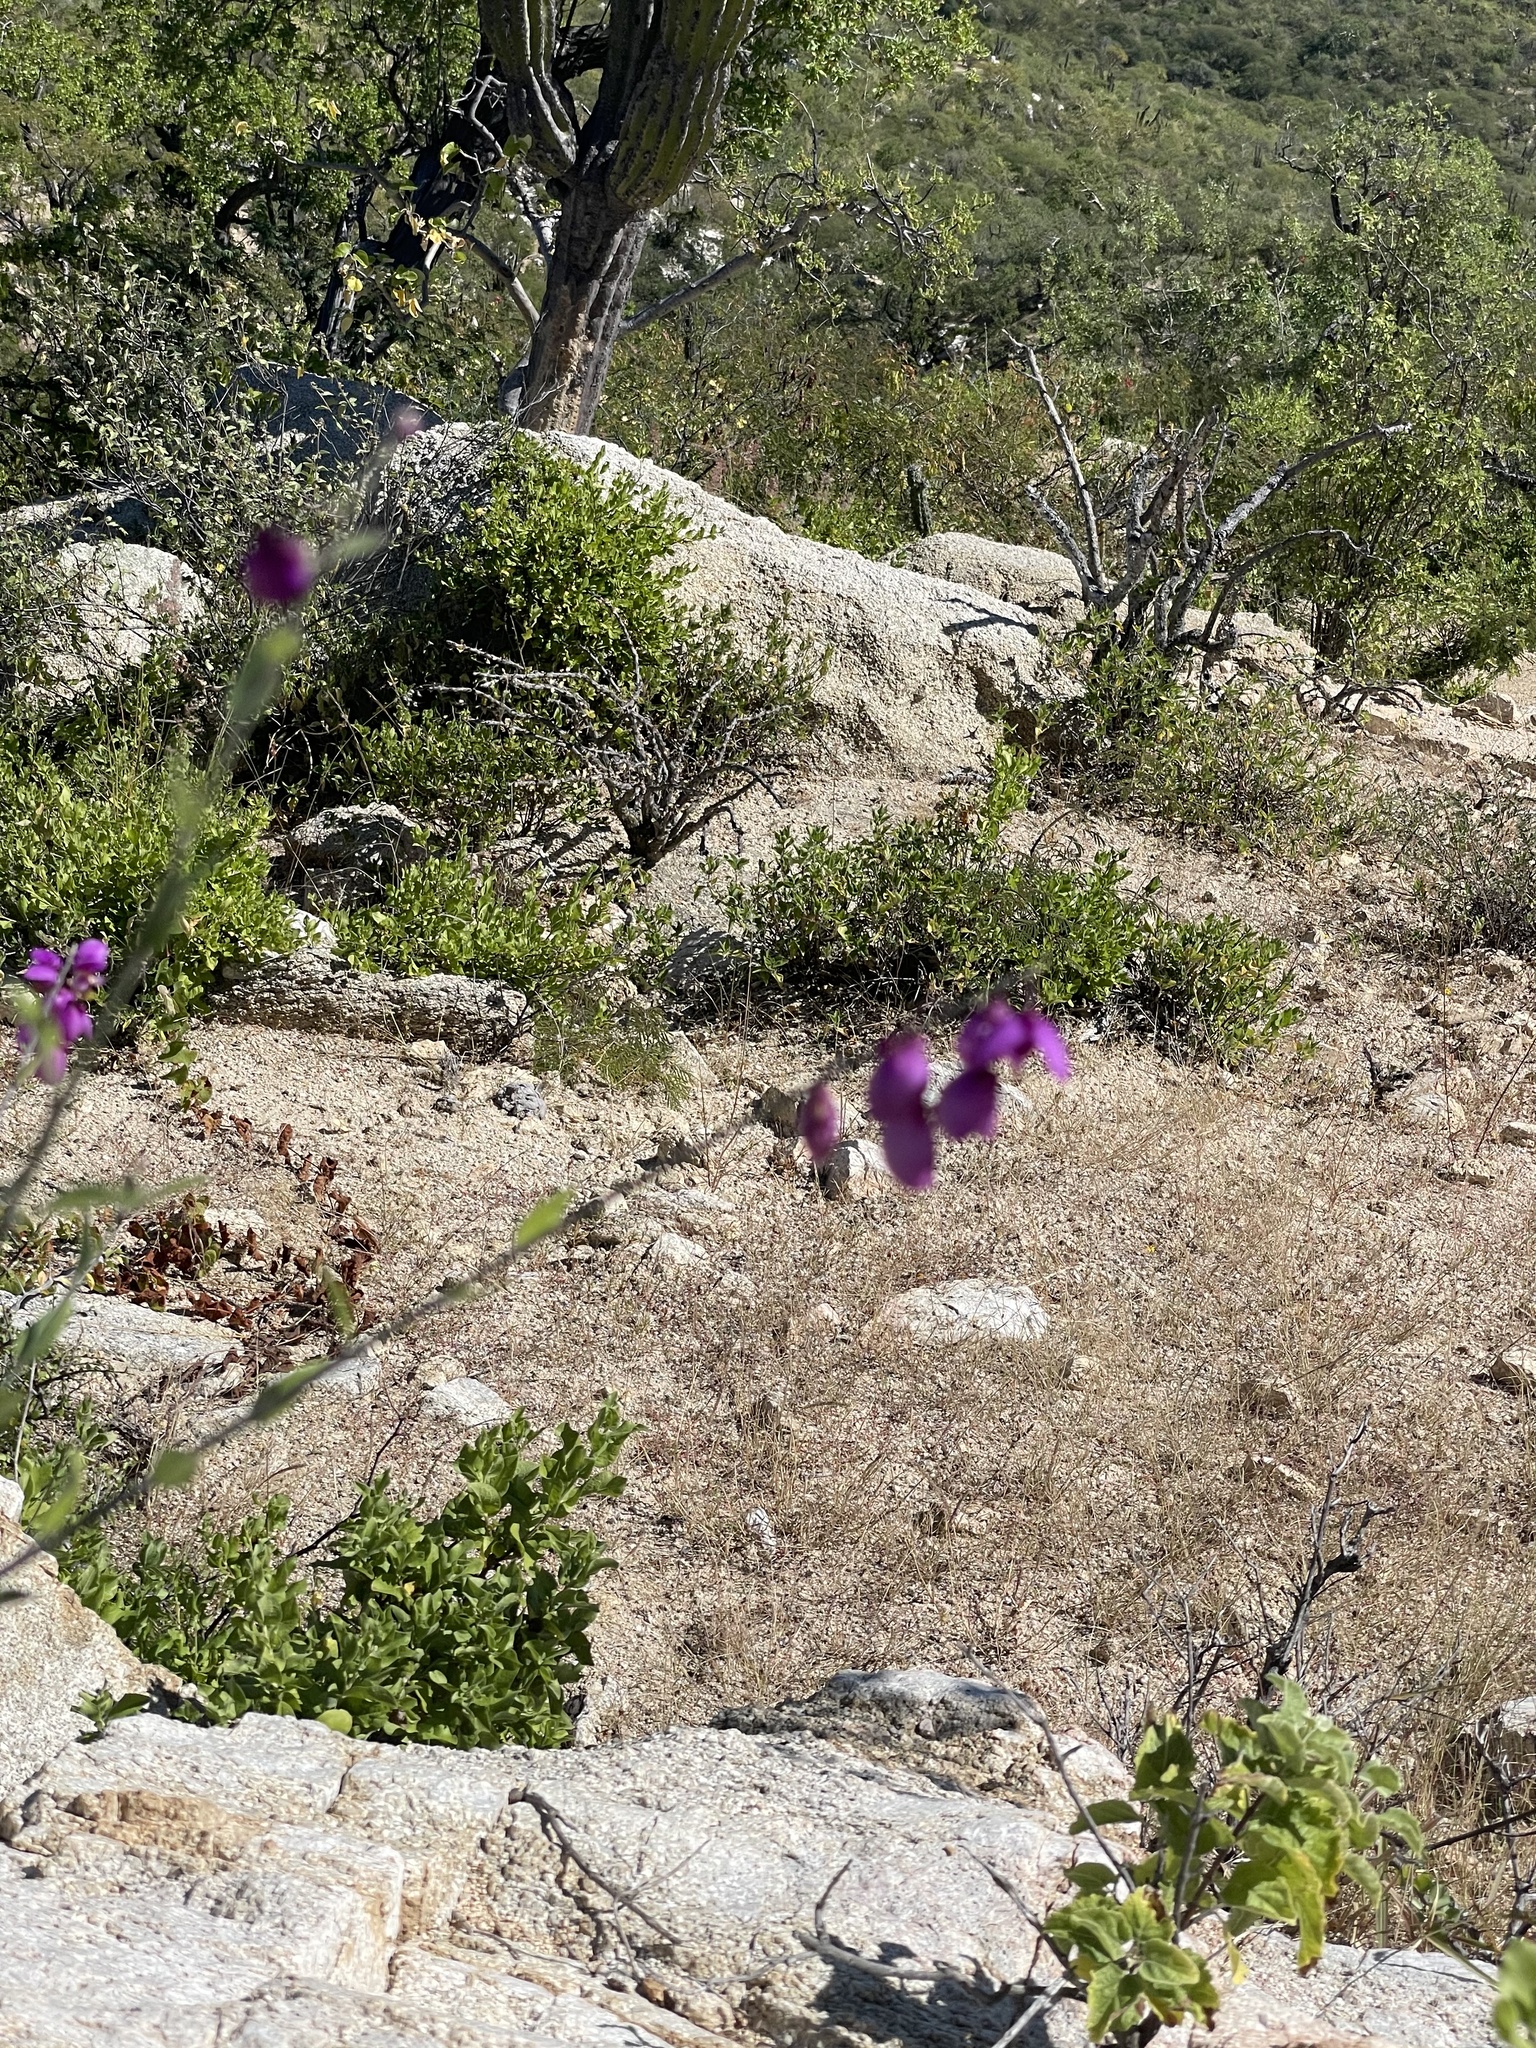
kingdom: Plantae
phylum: Tracheophyta
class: Magnoliopsida
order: Fabales
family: Polygalaceae
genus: Asemeia
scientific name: Asemeia apopetala
